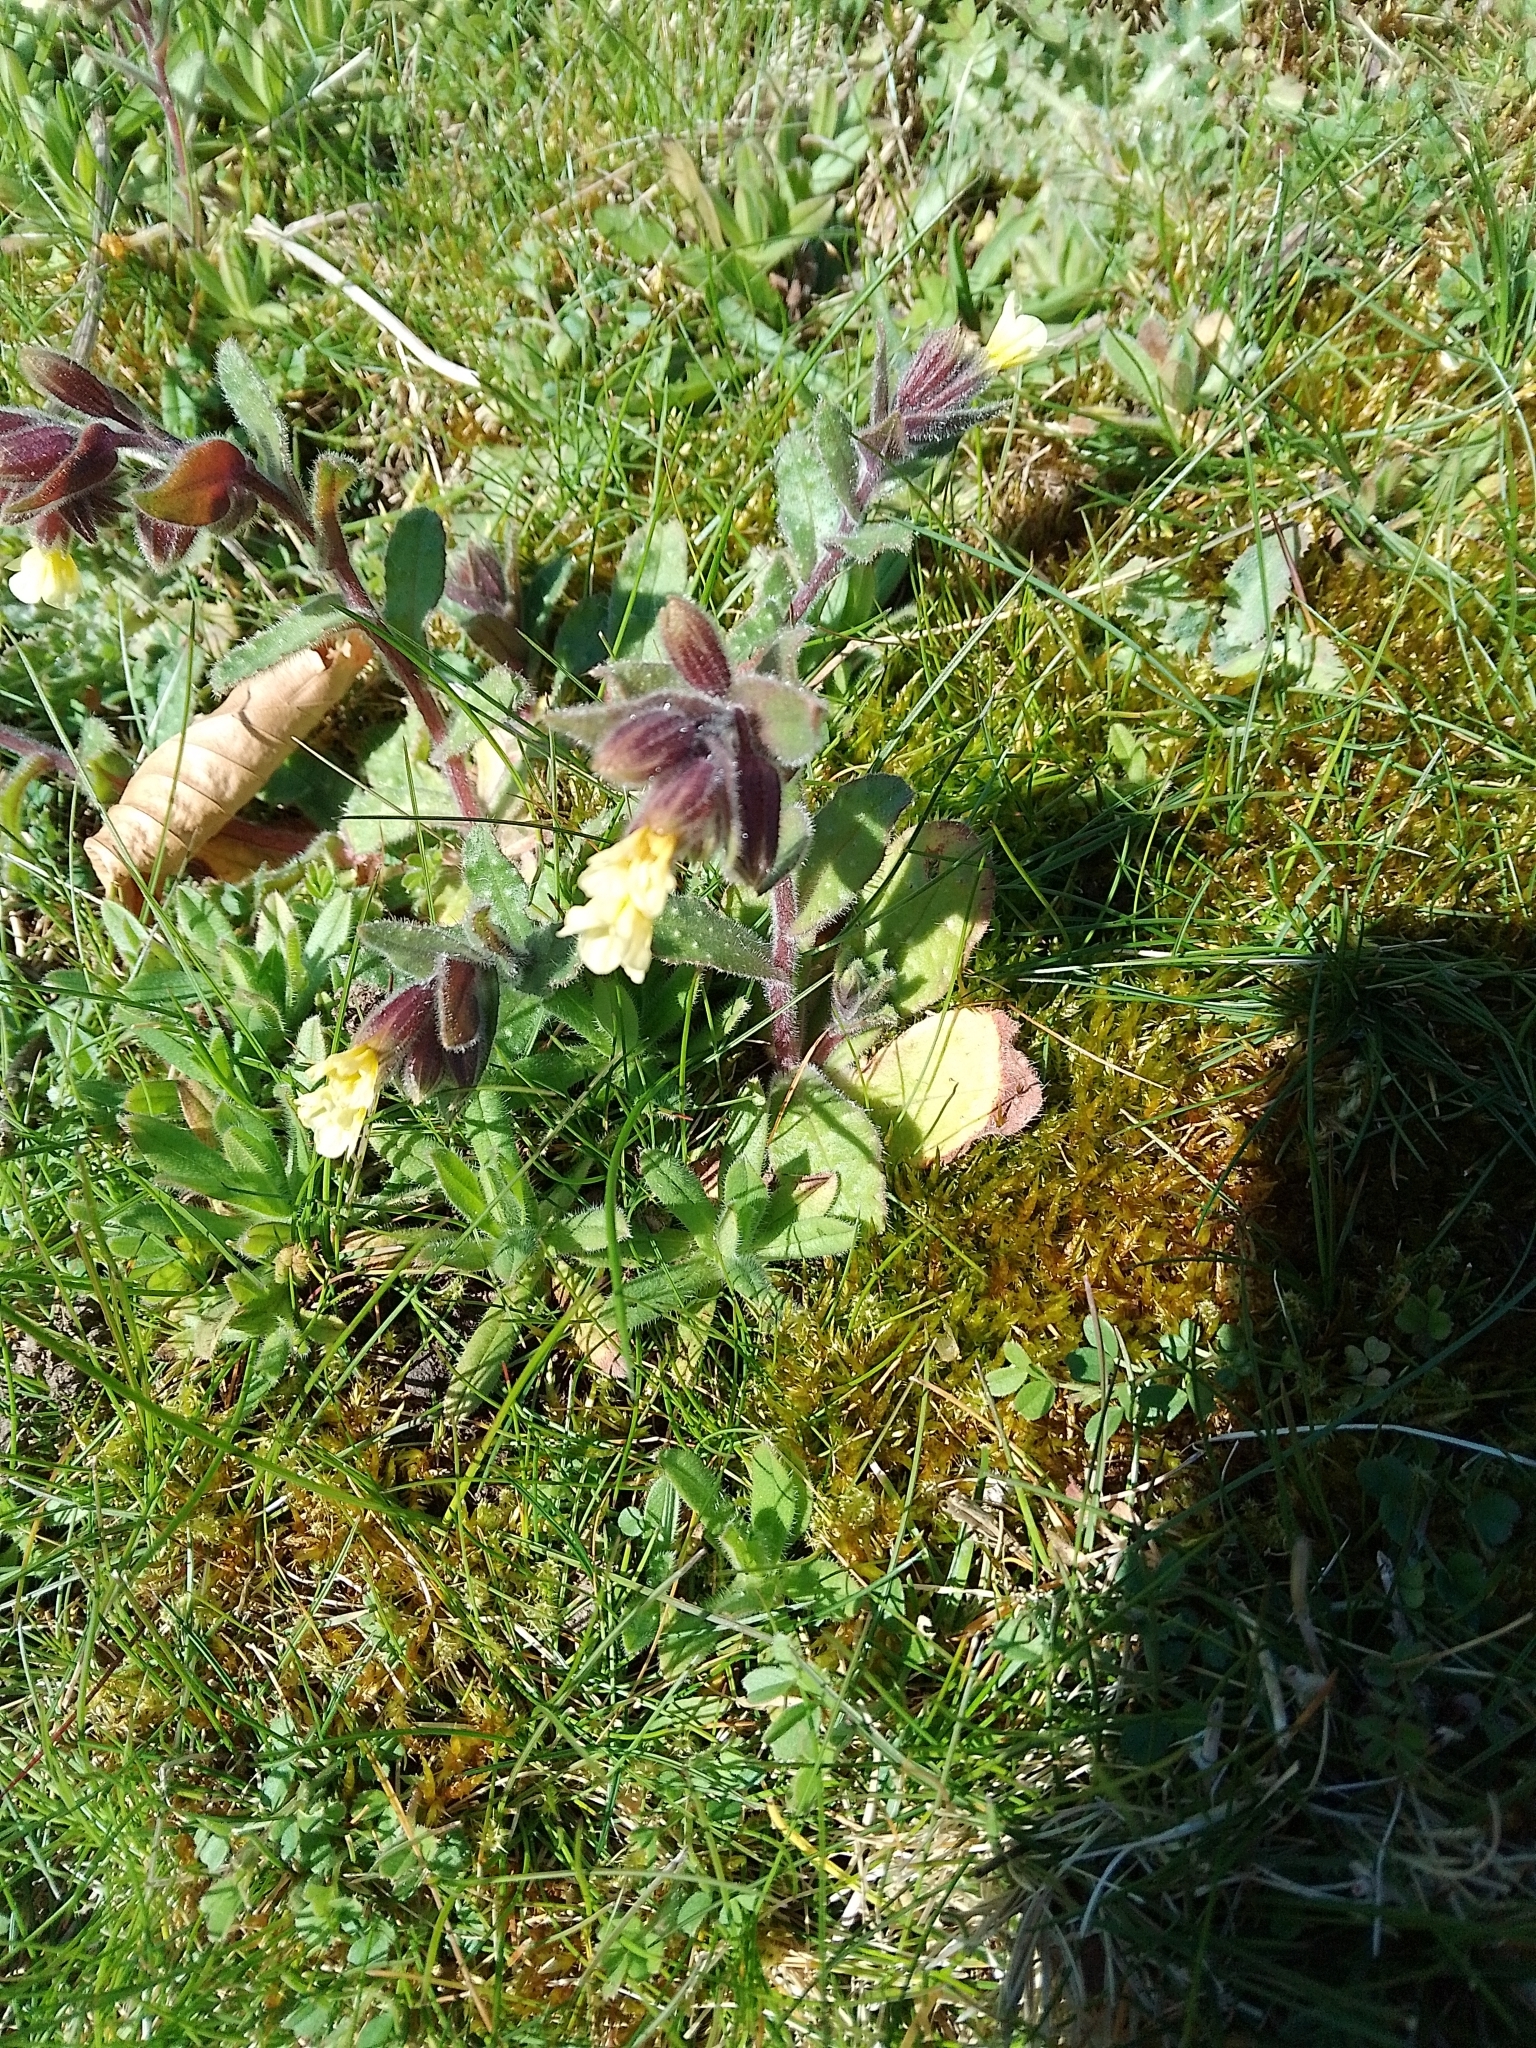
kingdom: Plantae
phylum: Tracheophyta
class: Magnoliopsida
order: Boraginales
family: Boraginaceae
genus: Nonea
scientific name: Nonea lutea
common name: Yellow nonea
